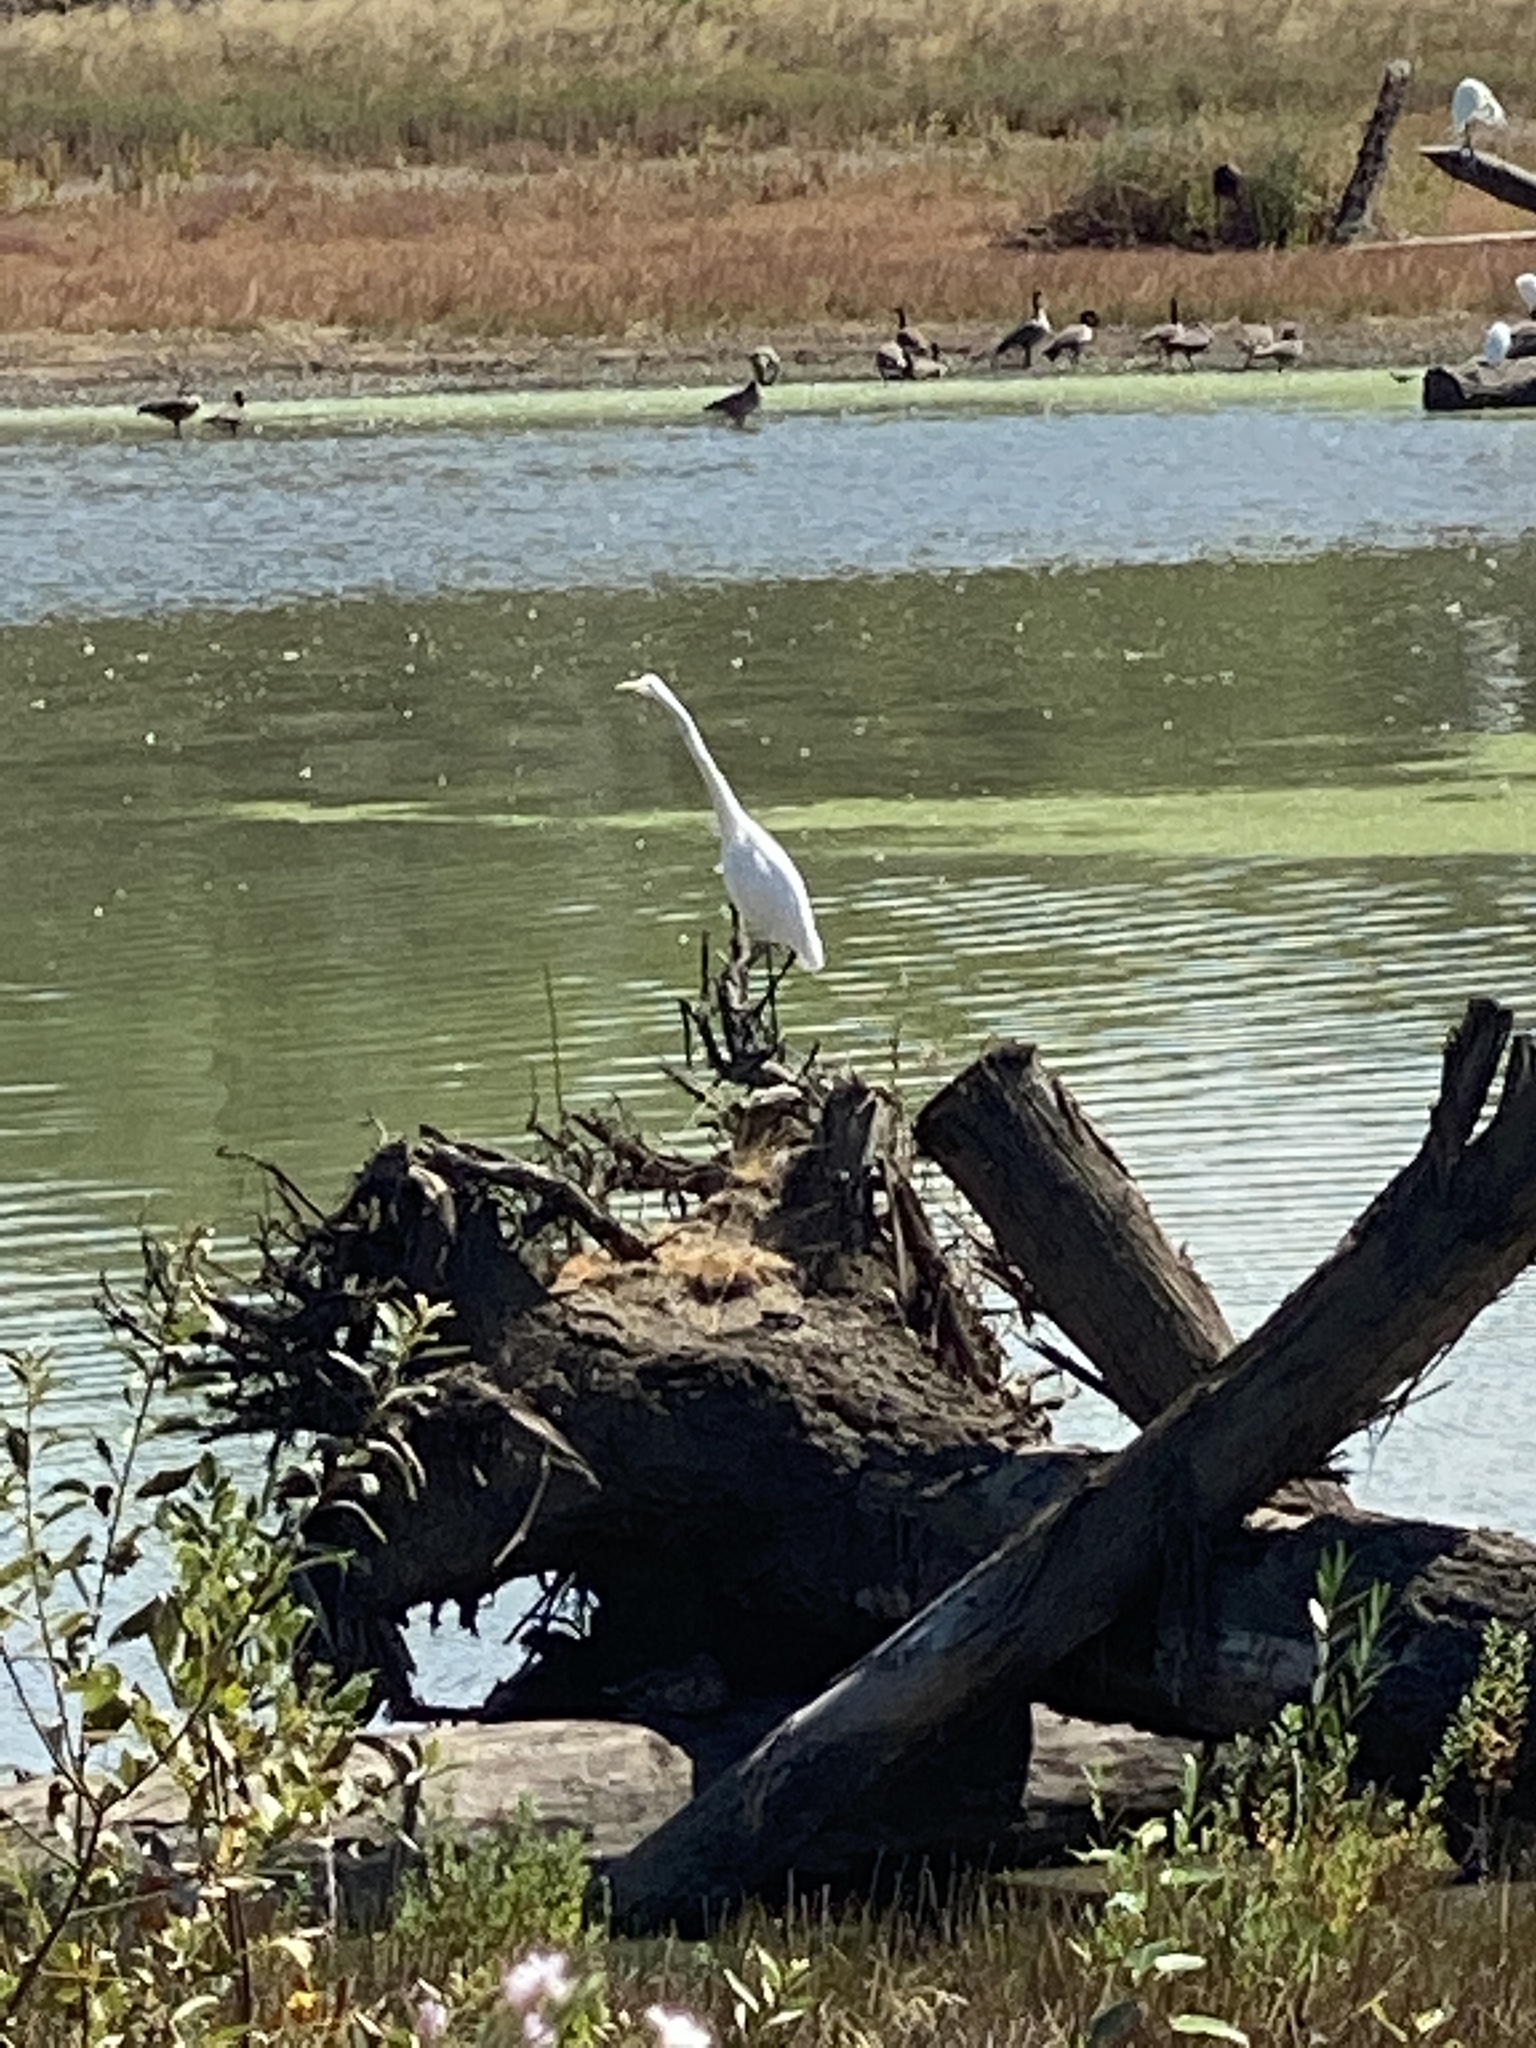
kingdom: Animalia
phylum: Chordata
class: Aves
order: Pelecaniformes
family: Ardeidae
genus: Ardea
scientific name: Ardea alba
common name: Great egret
